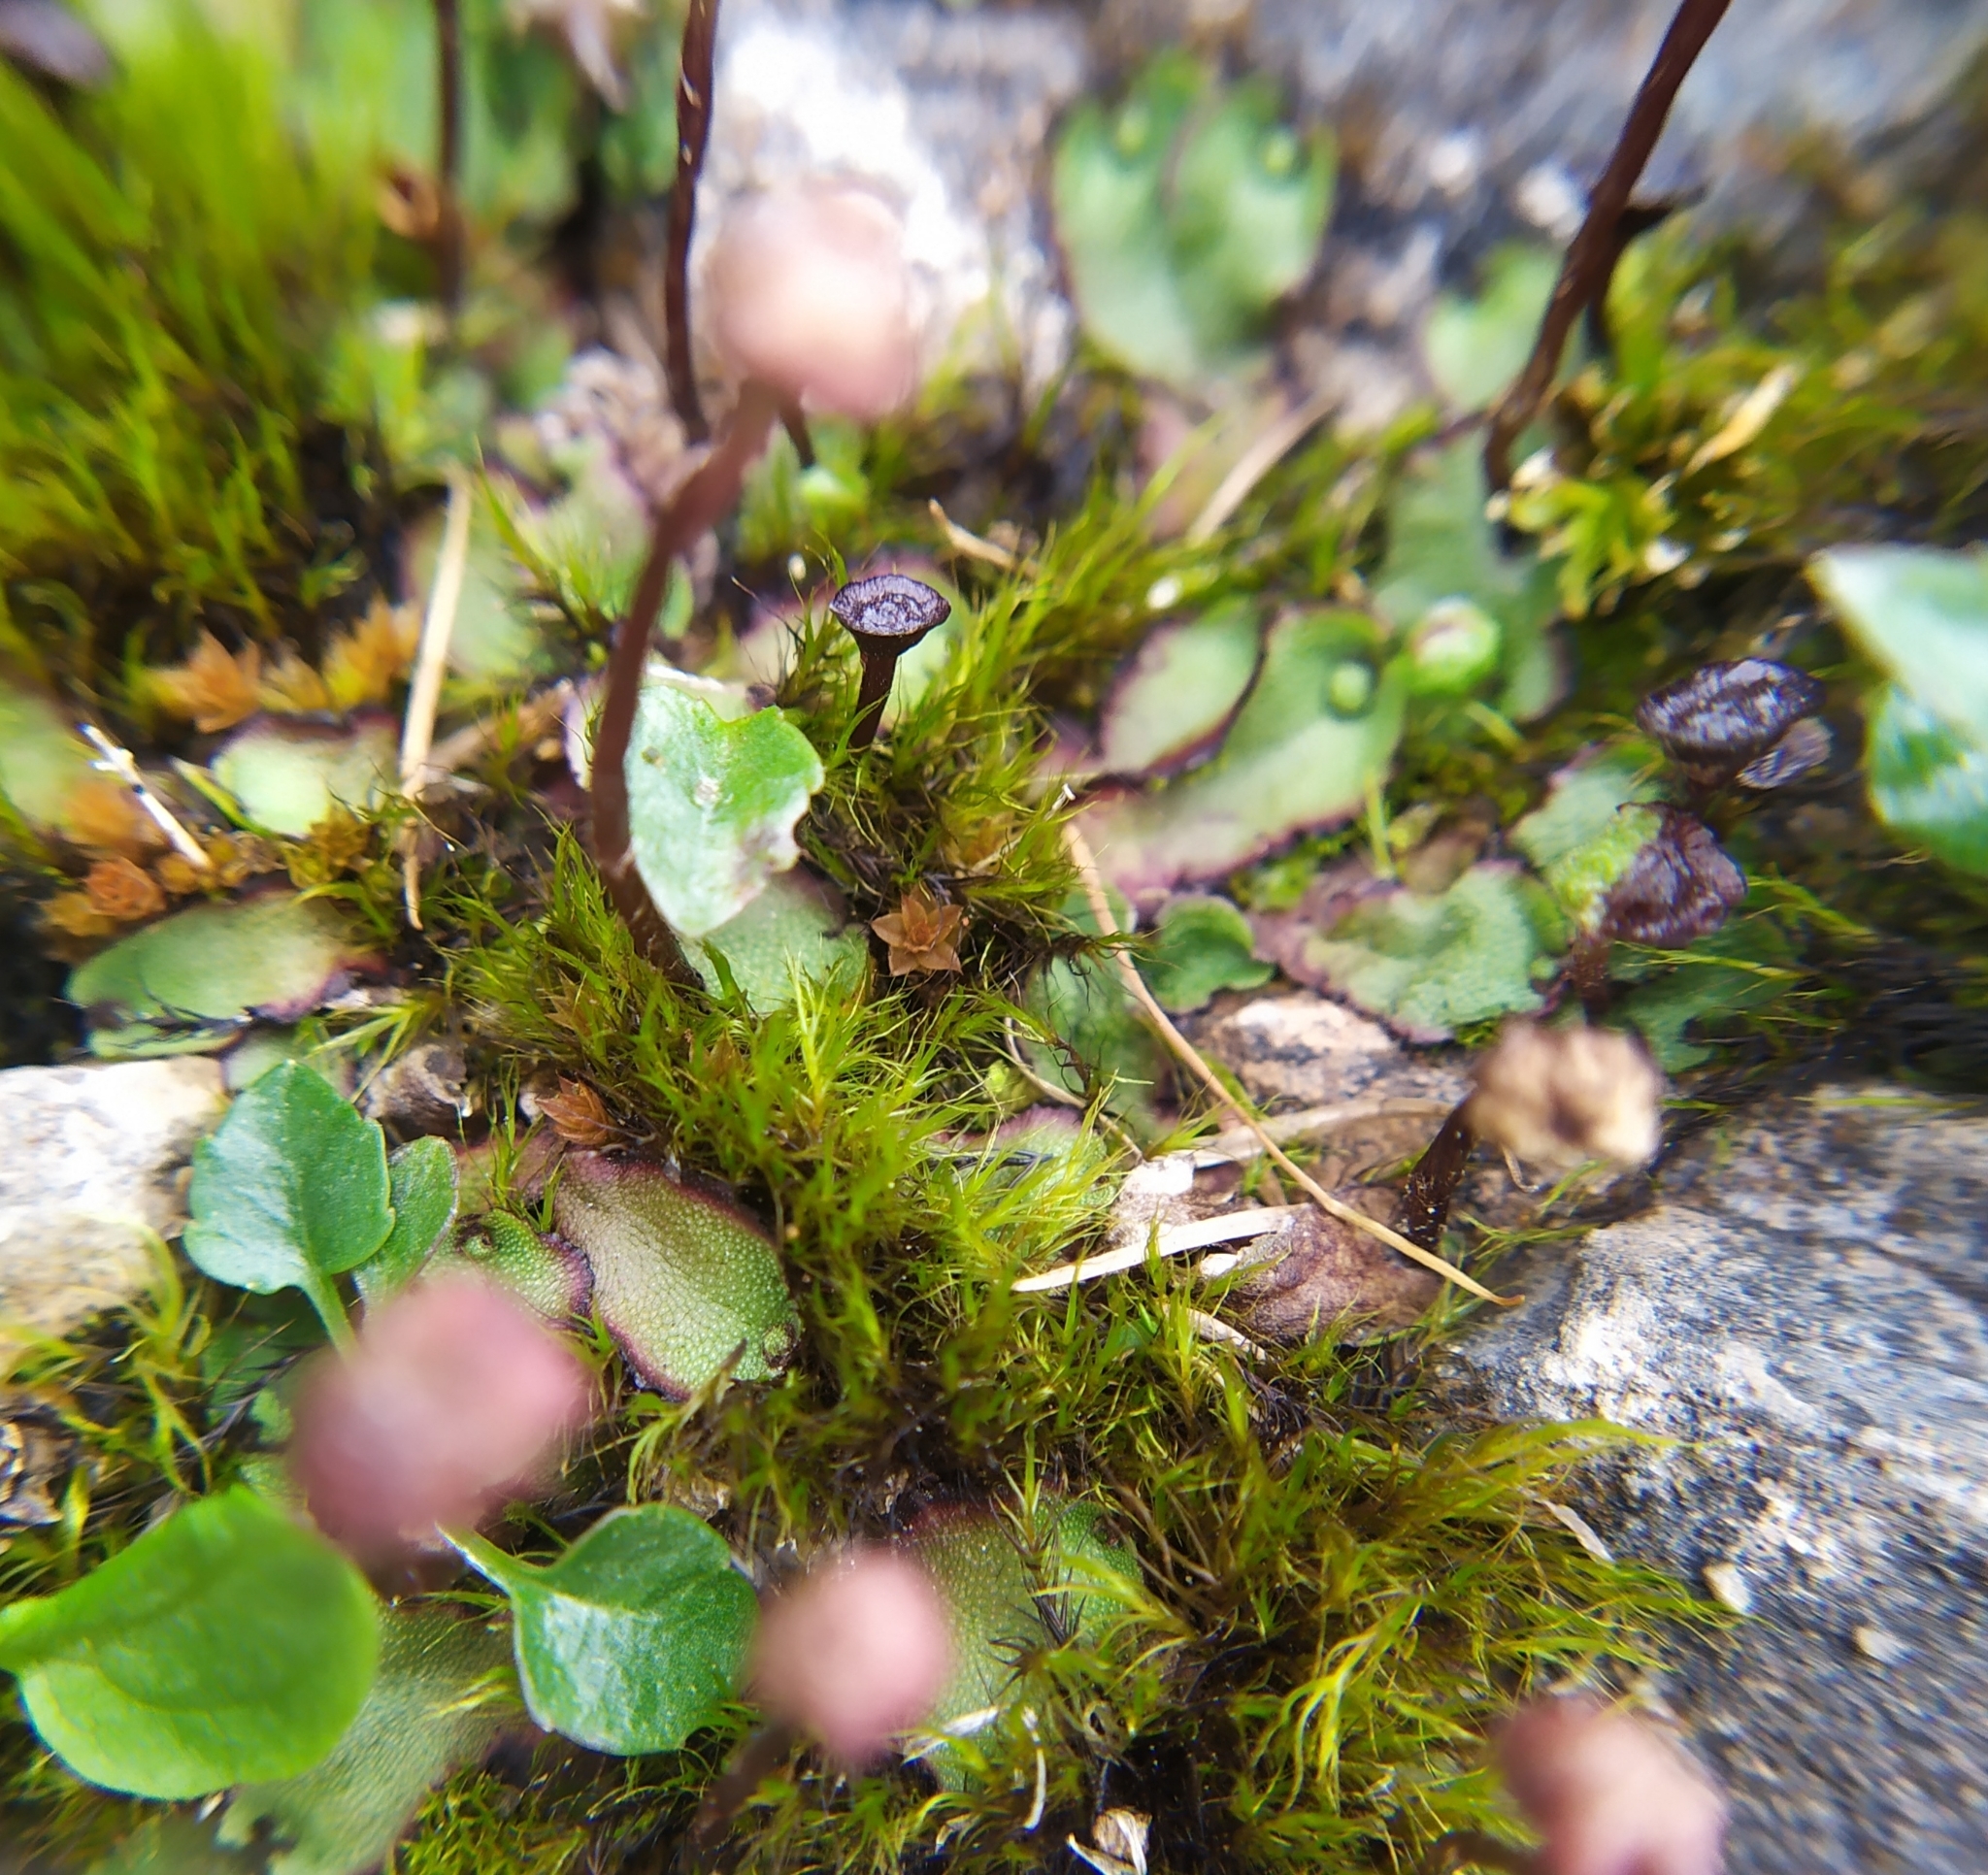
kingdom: Plantae
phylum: Marchantiophyta
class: Marchantiopsida
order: Marchantiales
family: Marchantiaceae
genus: Marchantia
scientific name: Marchantia quadrata
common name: Narrow mushroom-headed liverwort
